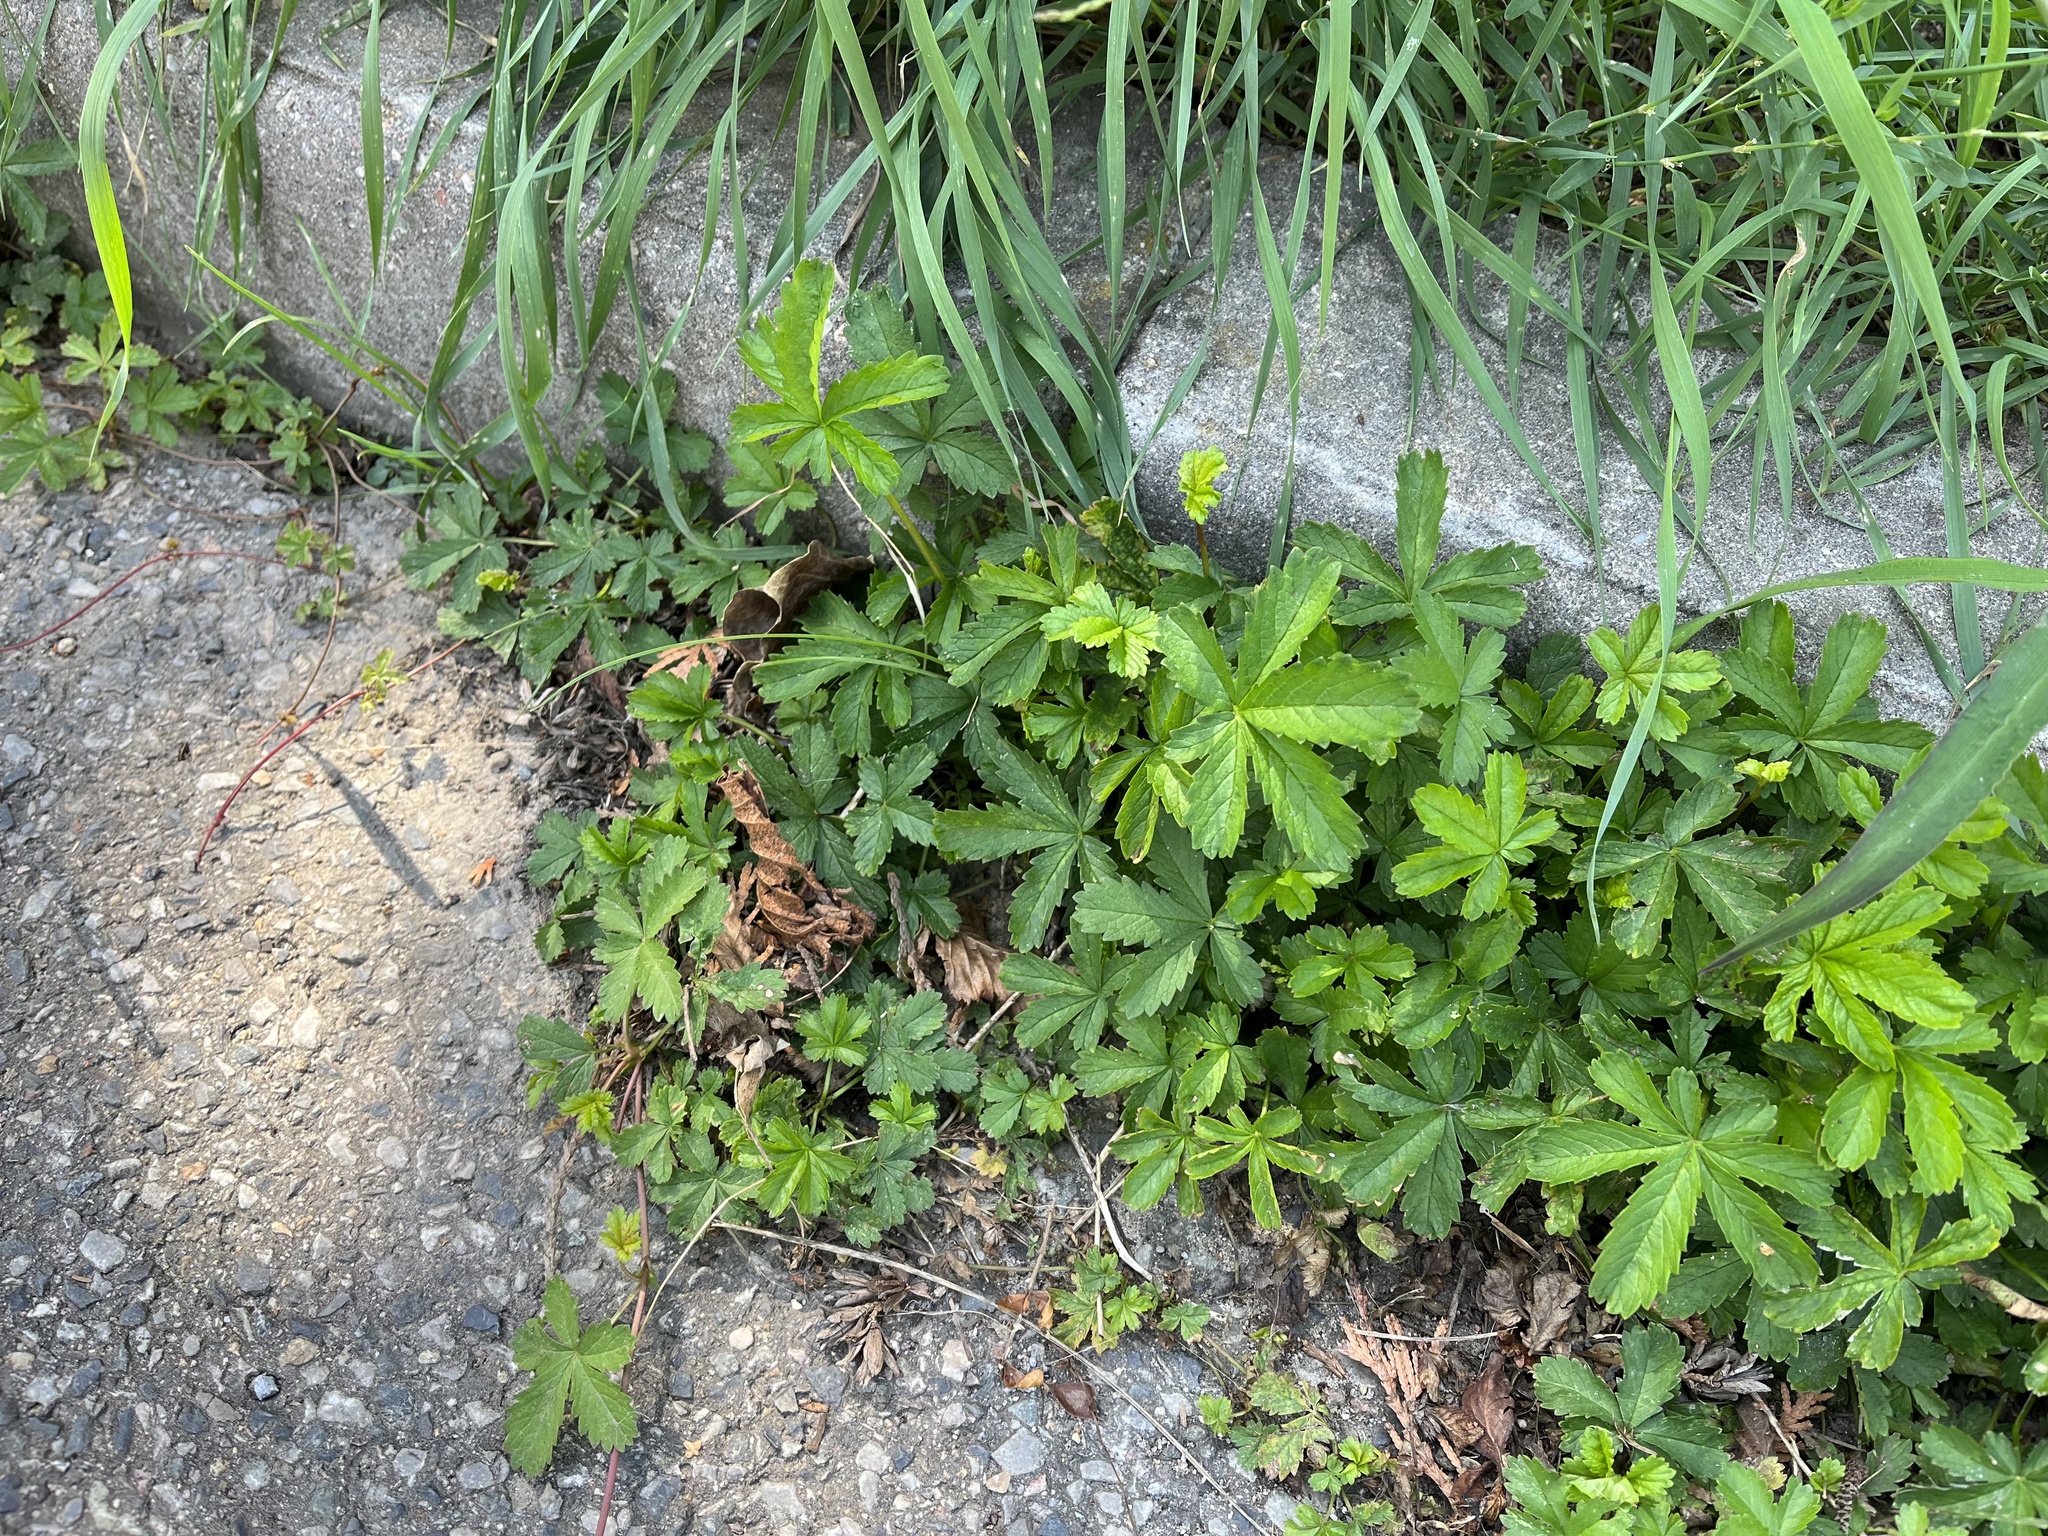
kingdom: Plantae
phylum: Tracheophyta
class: Magnoliopsida
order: Rosales
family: Rosaceae
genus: Potentilla
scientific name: Potentilla reptans
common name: Creeping cinquefoil
